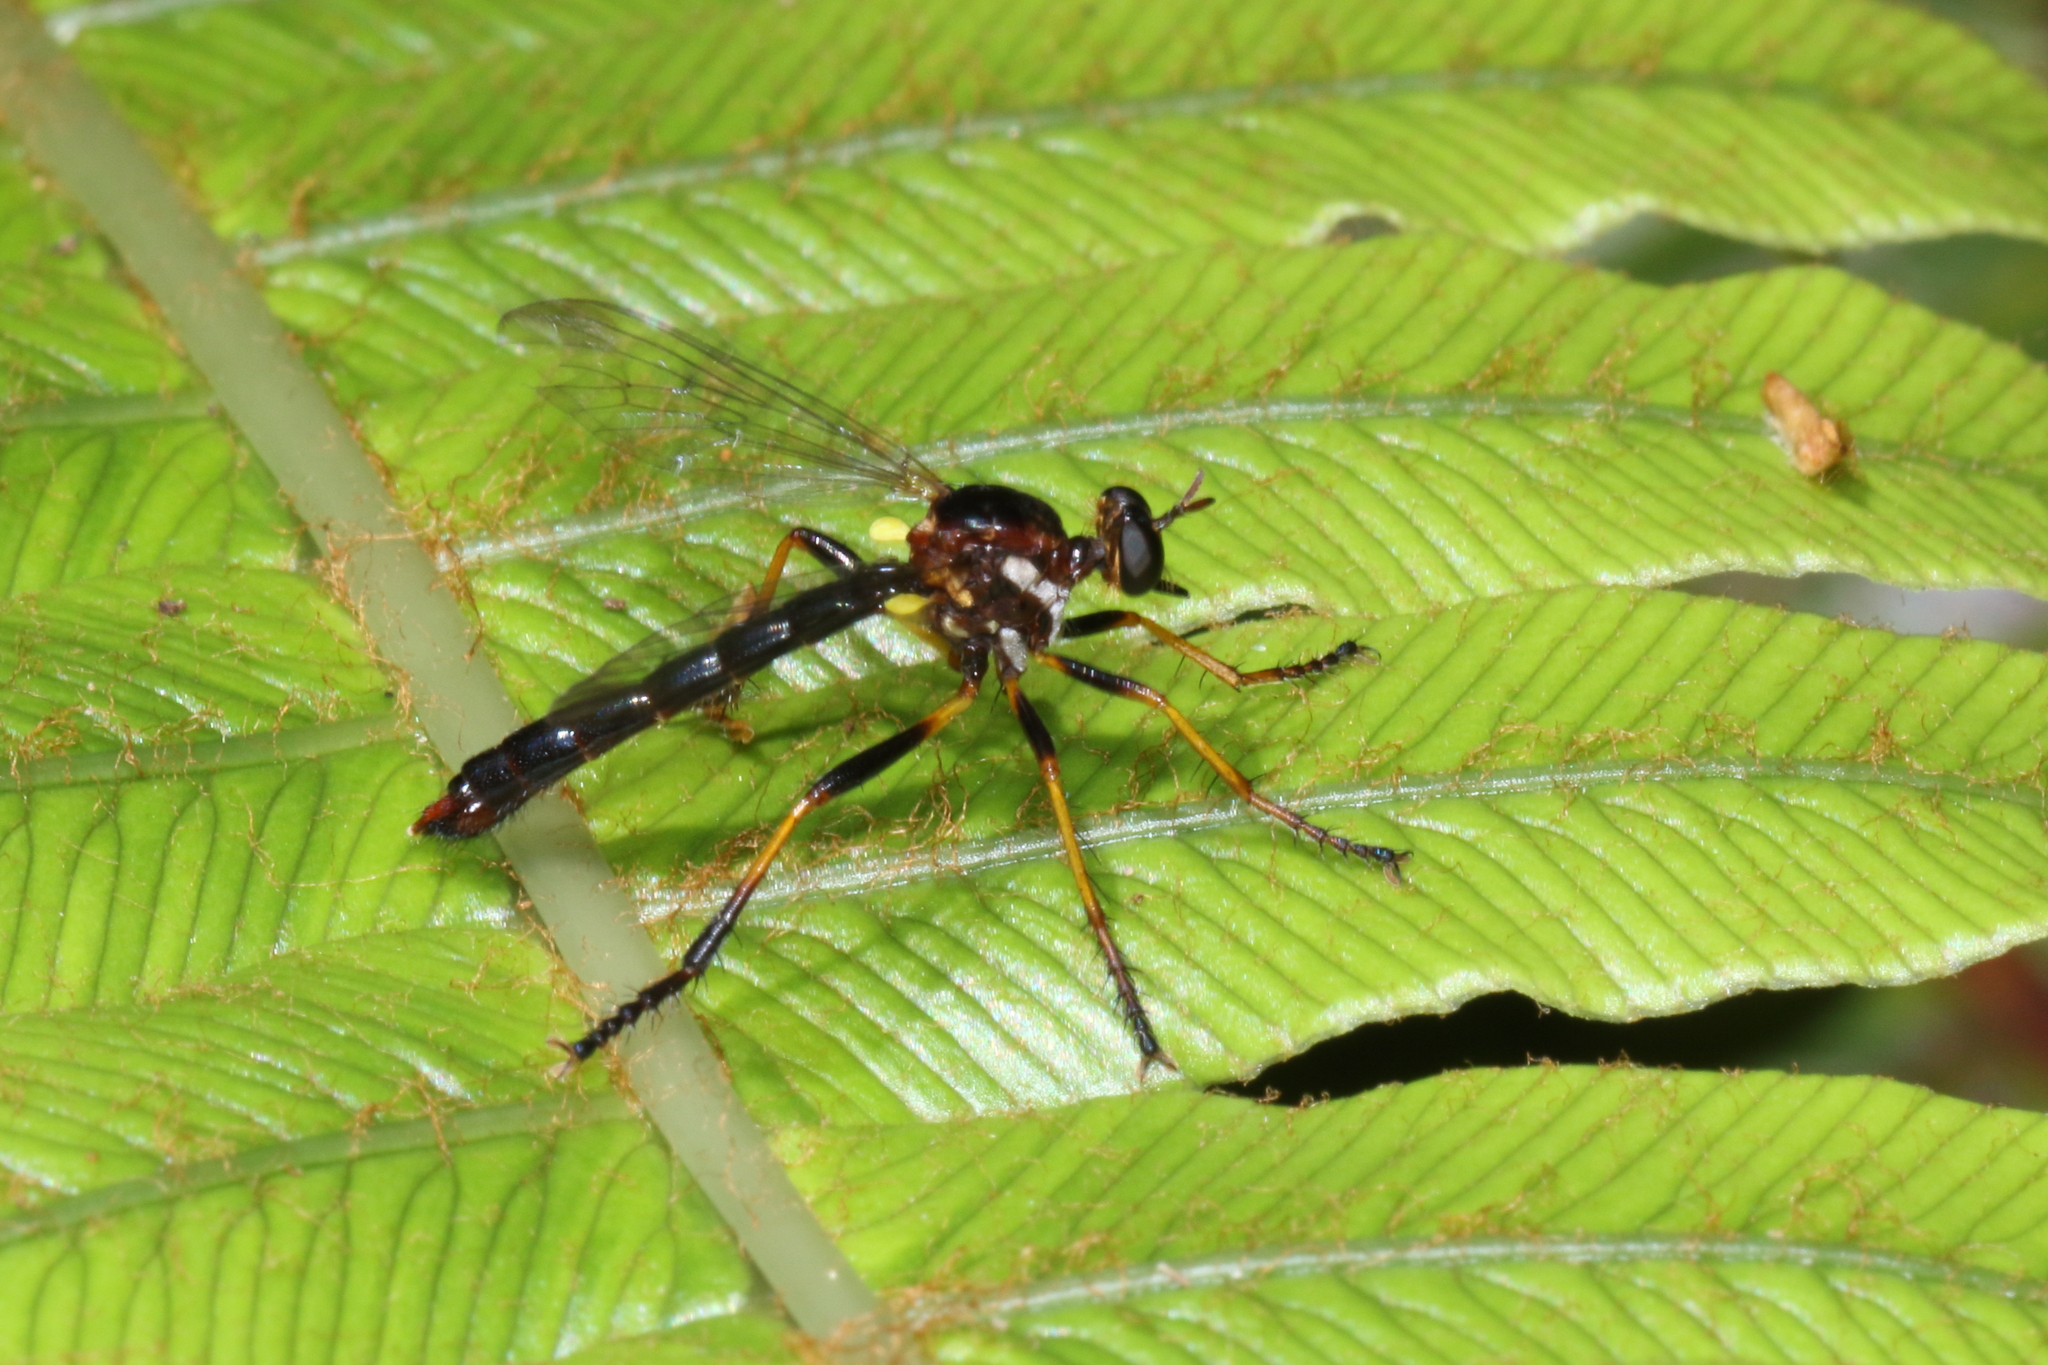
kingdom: Animalia
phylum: Arthropoda
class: Insecta
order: Diptera
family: Asilidae
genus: Saropogon
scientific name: Saropogon fascipes
